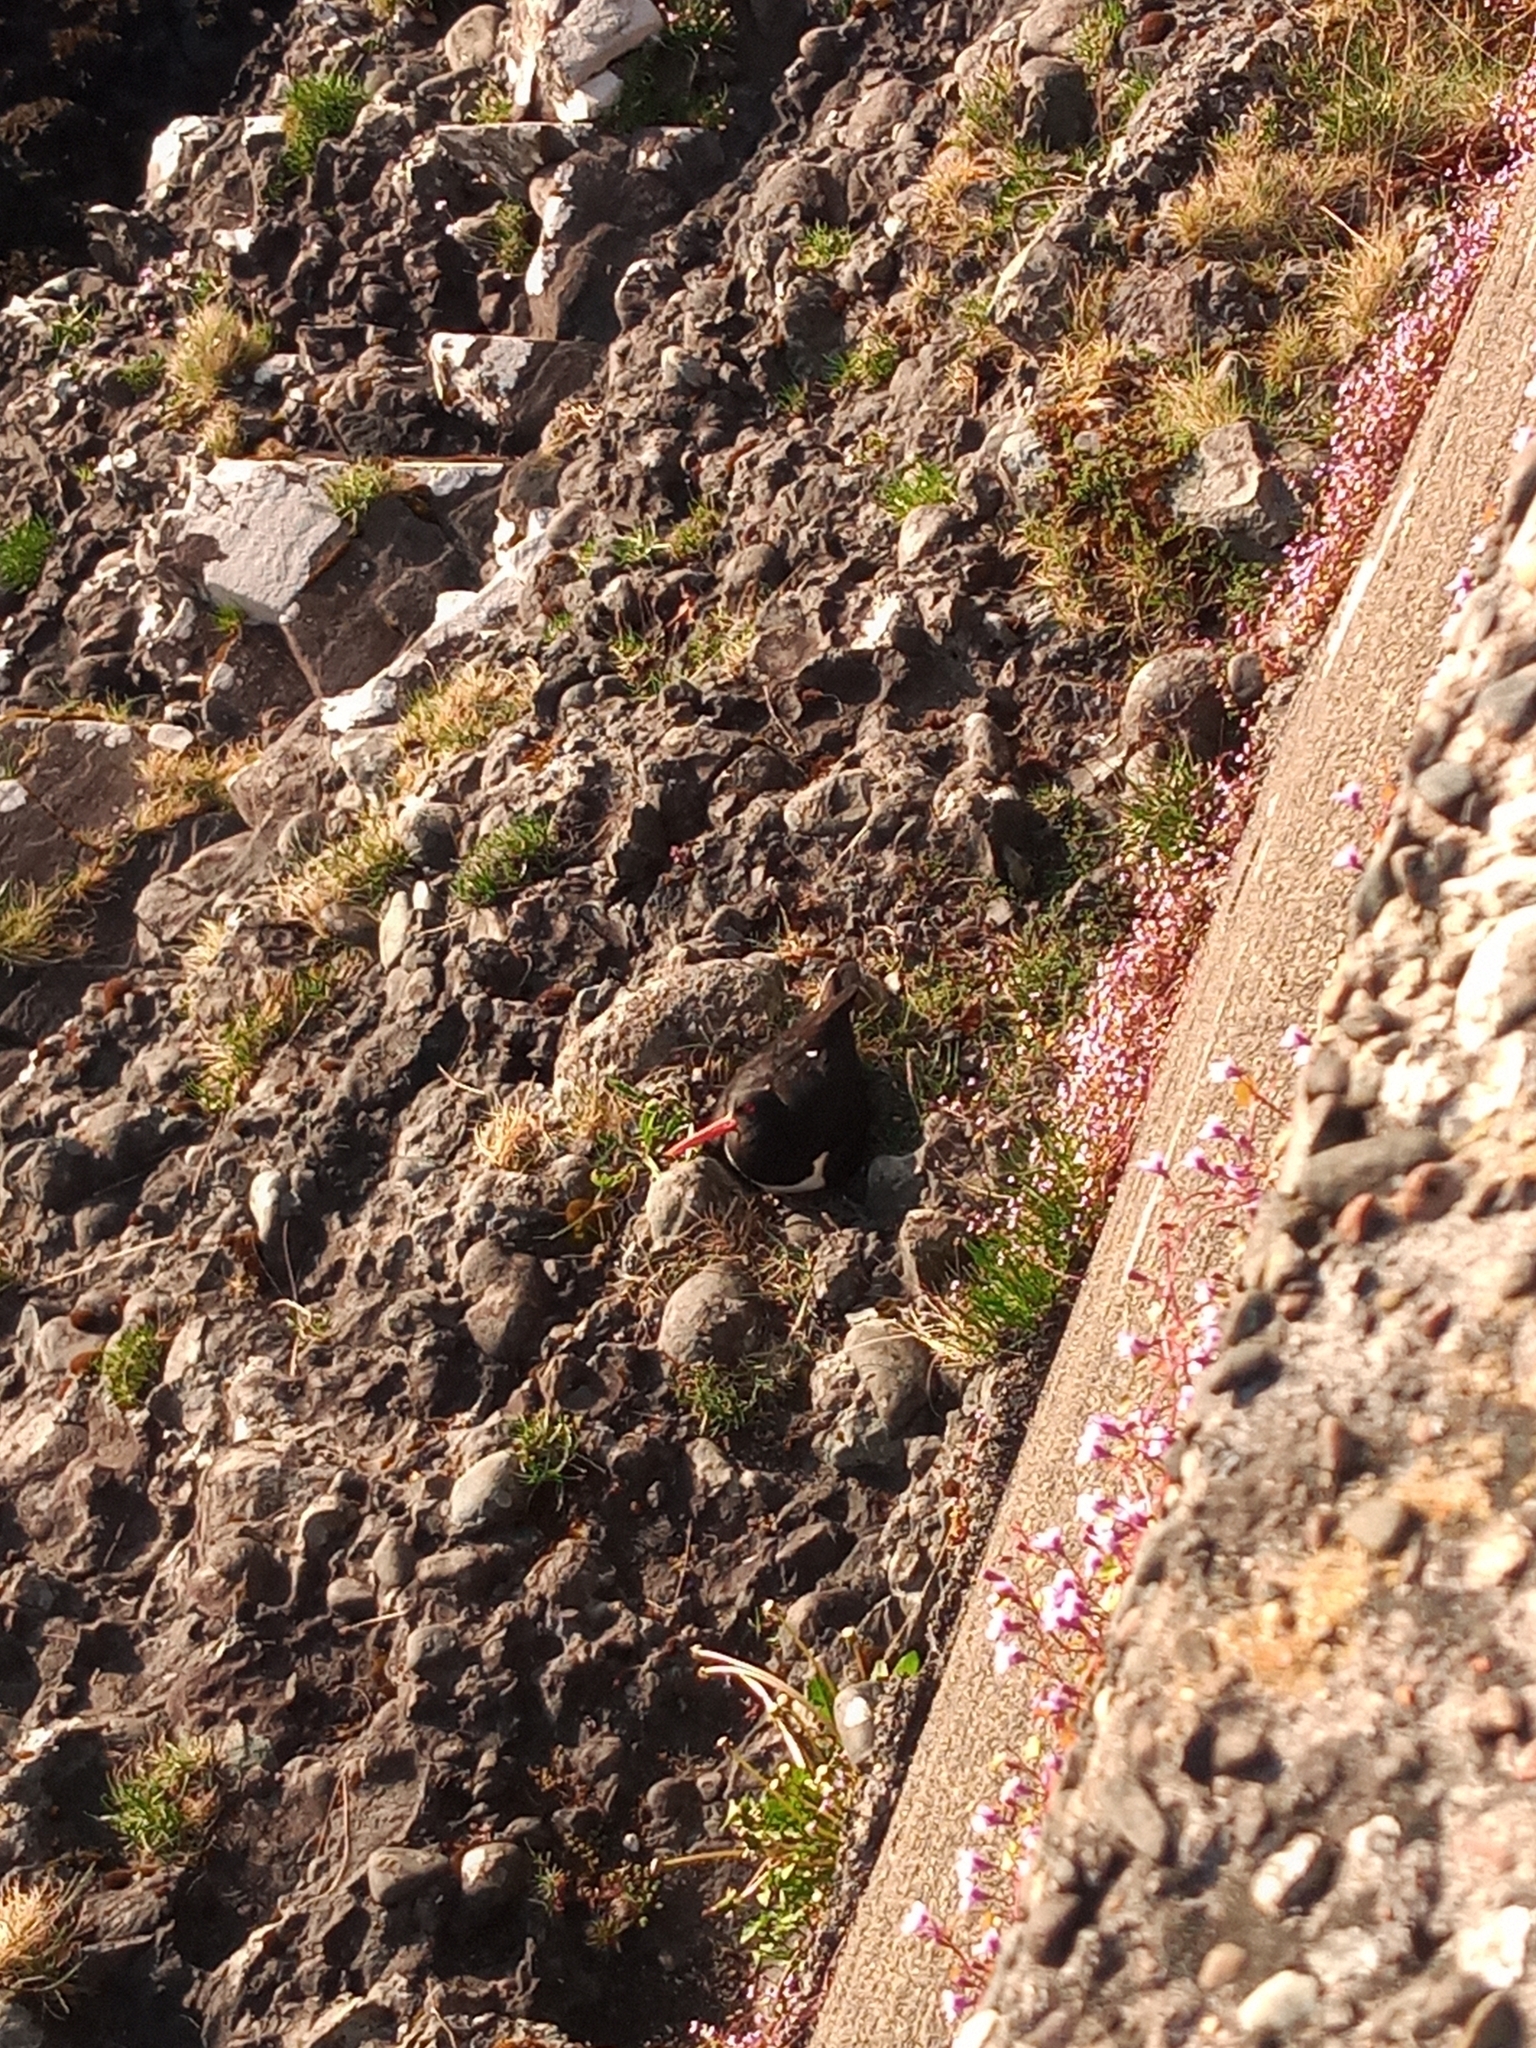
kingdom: Animalia
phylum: Chordata
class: Aves
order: Charadriiformes
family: Haematopodidae
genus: Haematopus
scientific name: Haematopus ostralegus
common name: Eurasian oystercatcher
